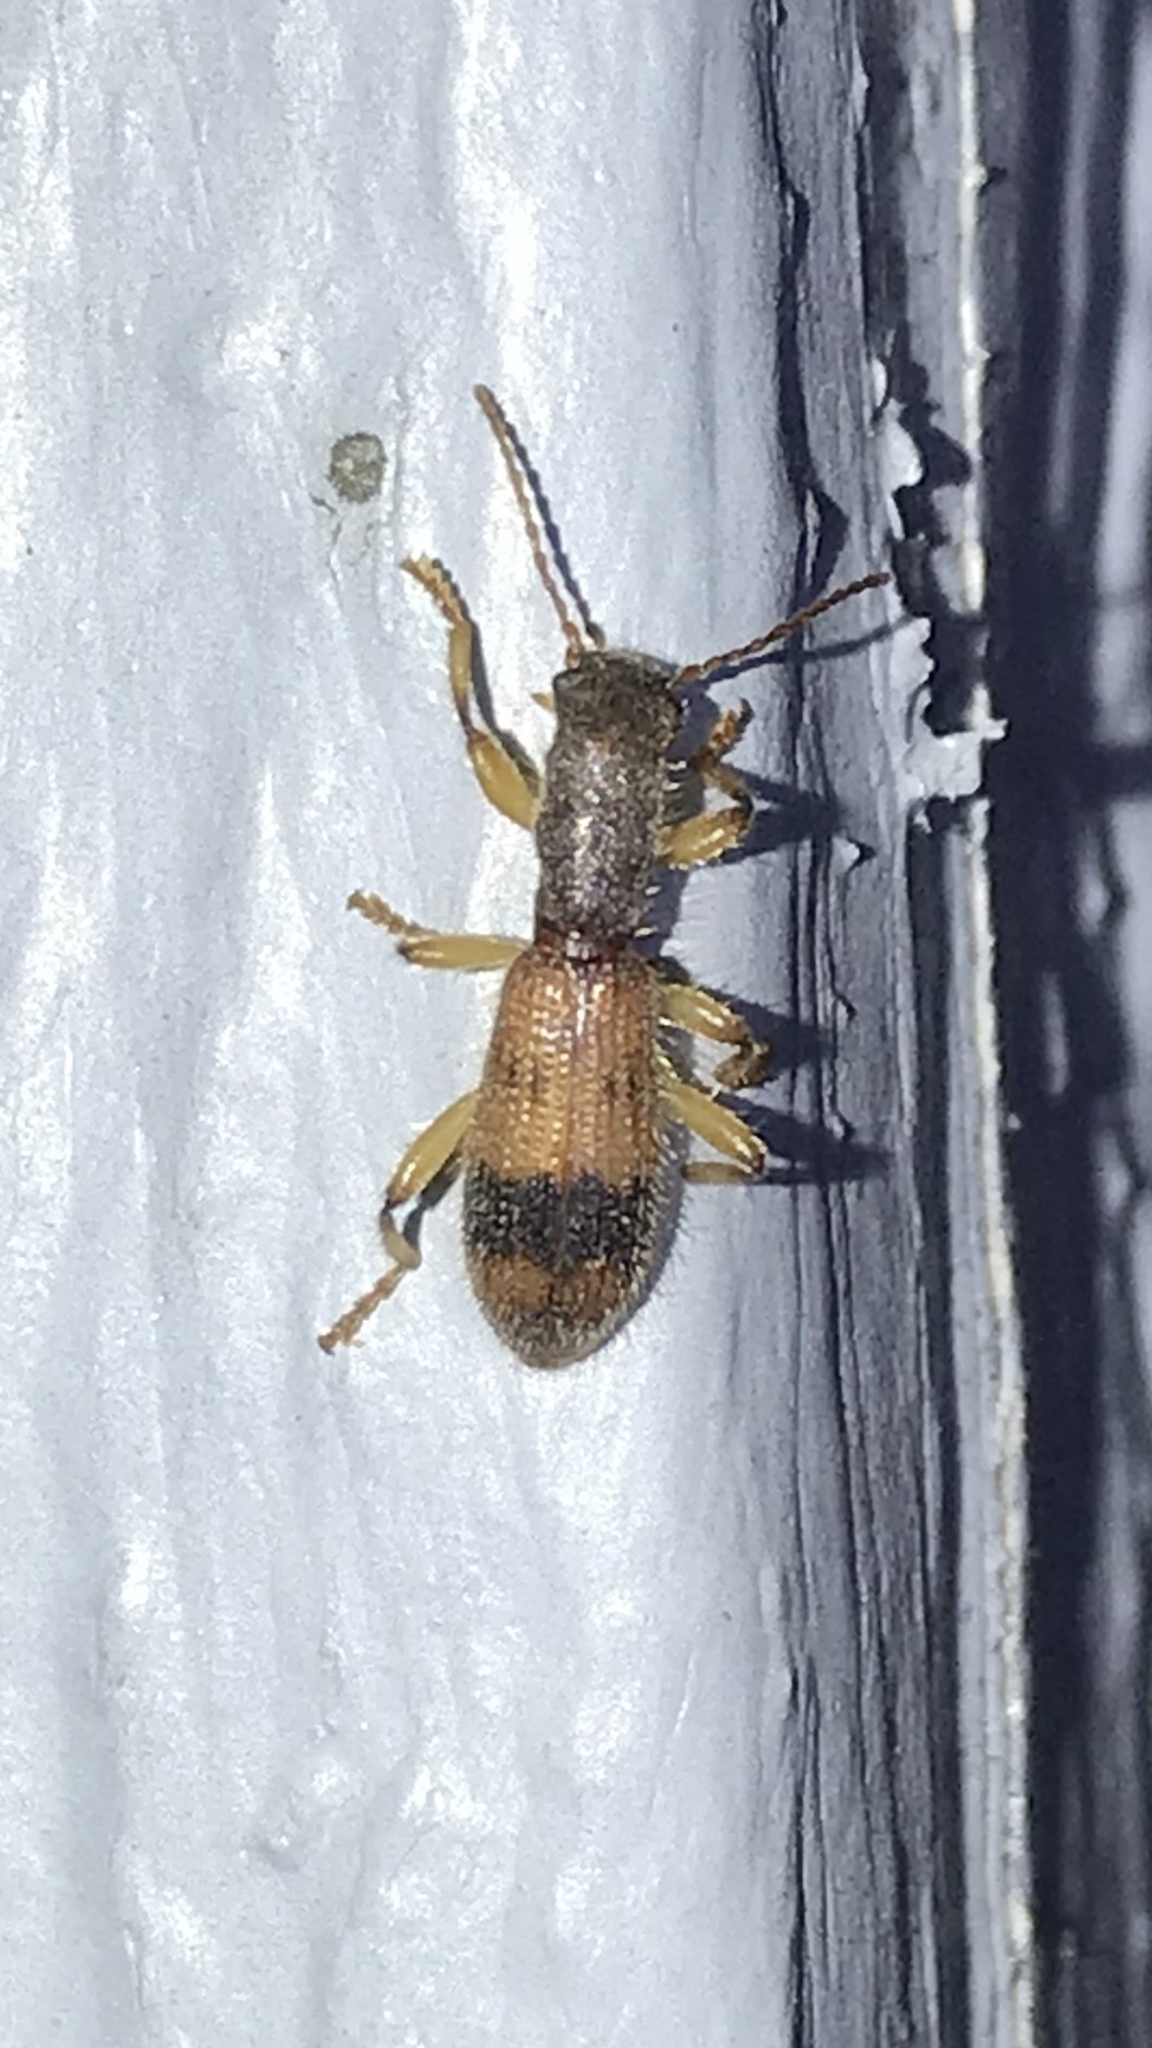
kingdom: Animalia
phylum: Arthropoda
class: Insecta
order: Coleoptera
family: Cleridae
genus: Cymatodera
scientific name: Cymatodera balteata
